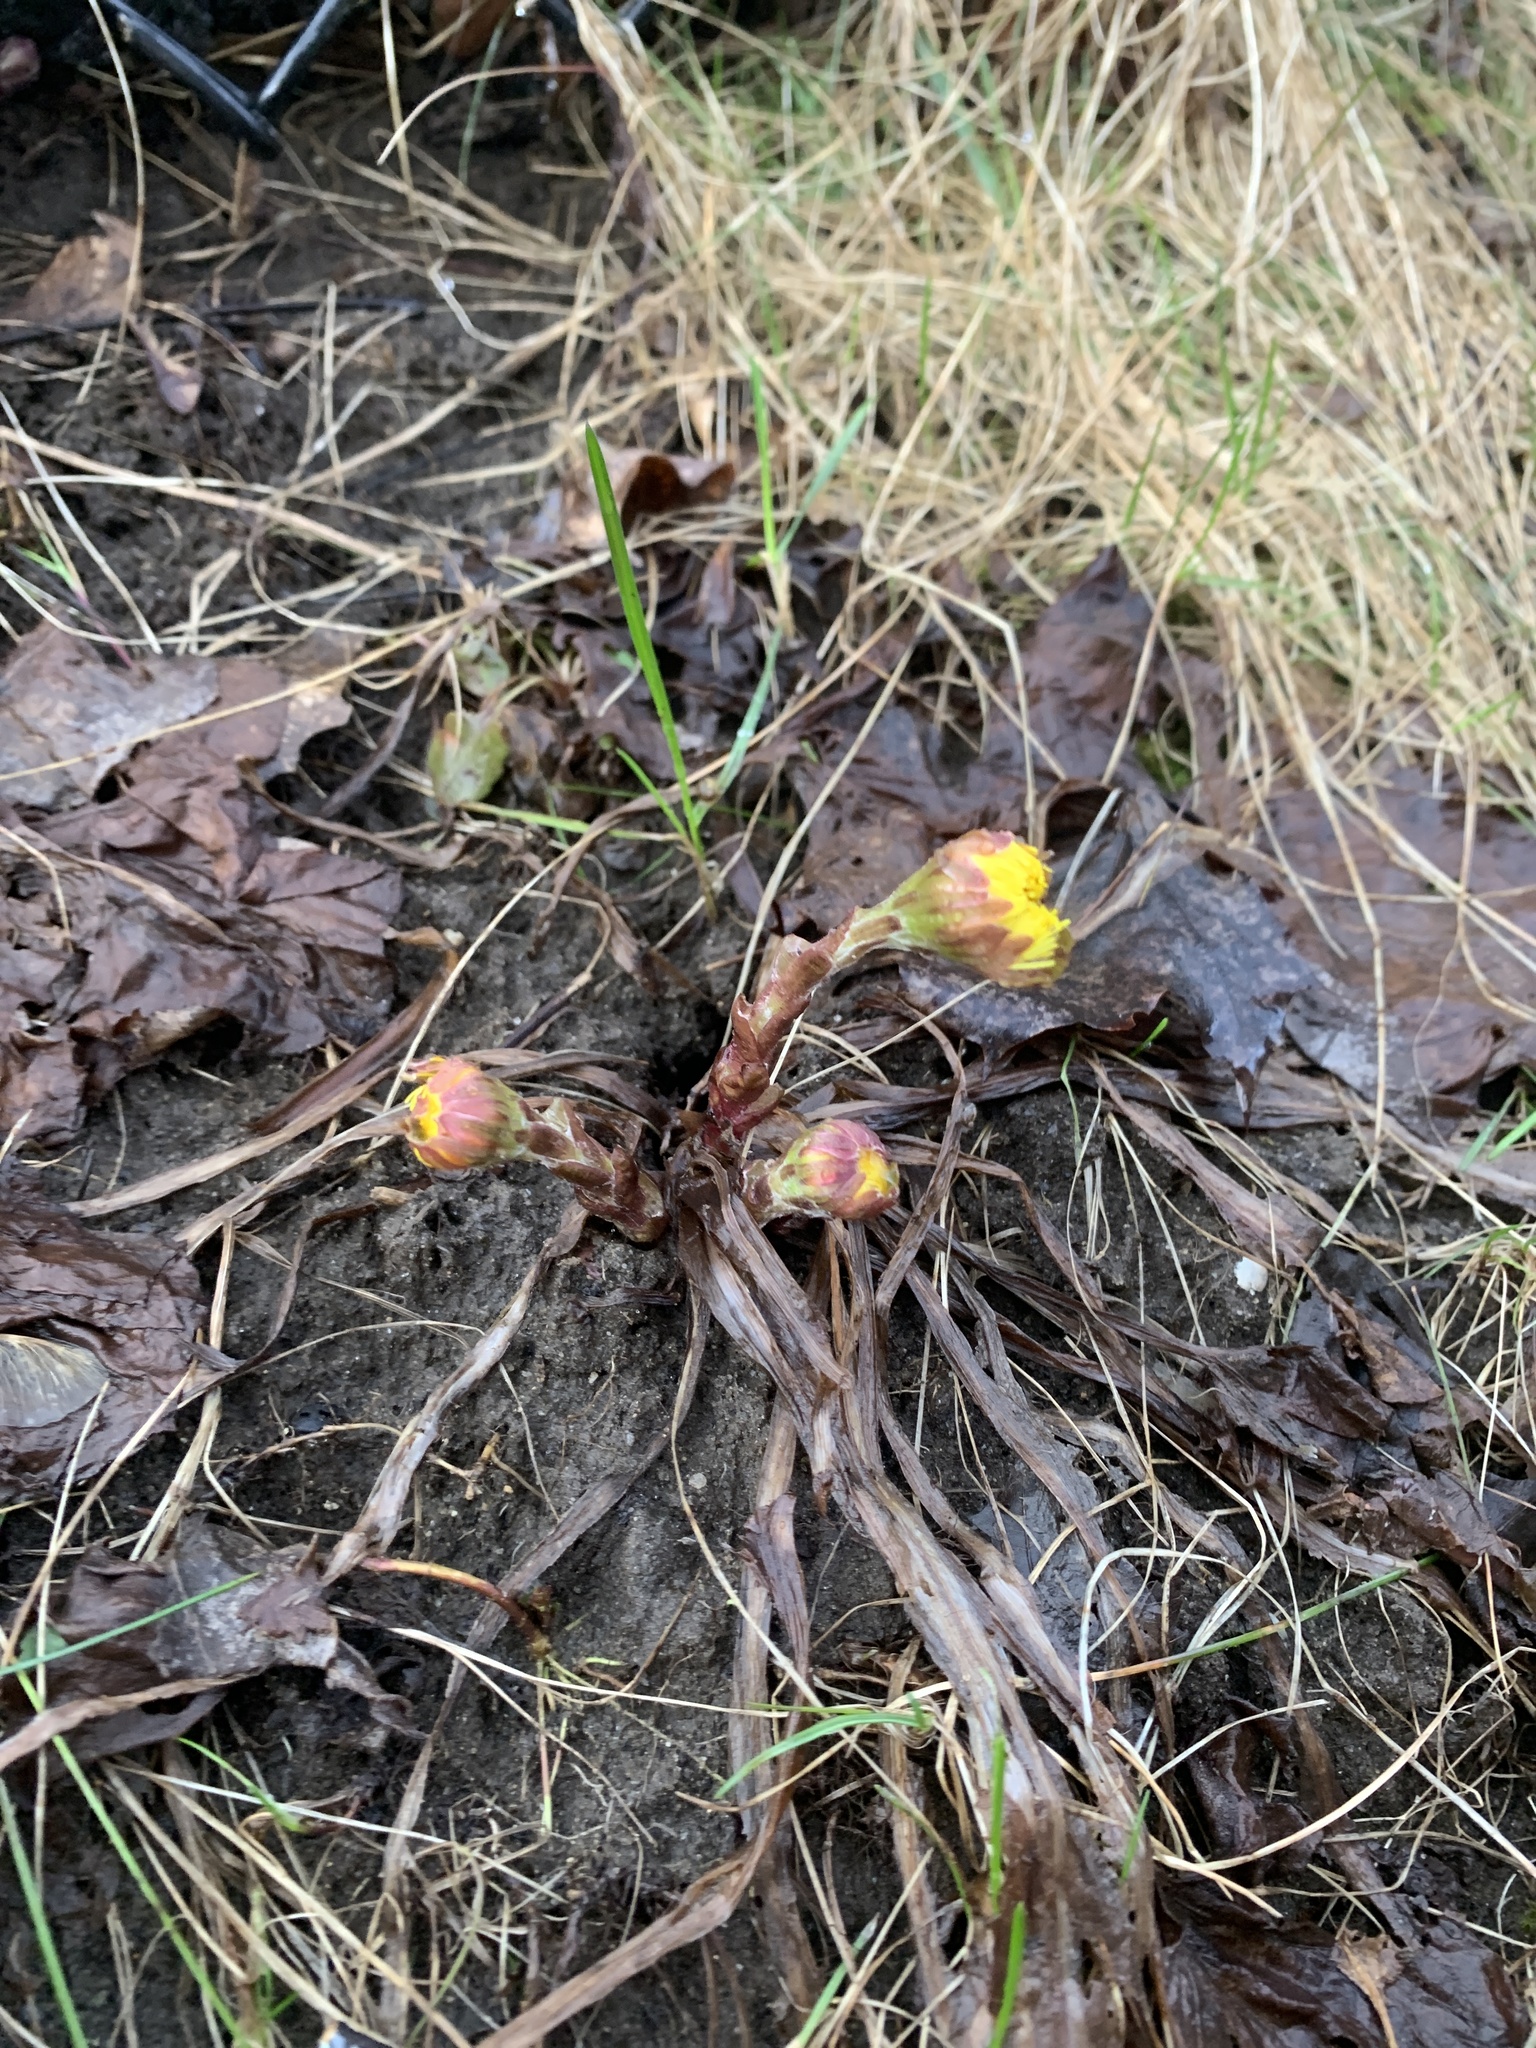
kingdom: Plantae
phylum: Tracheophyta
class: Magnoliopsida
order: Asterales
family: Asteraceae
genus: Tussilago
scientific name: Tussilago farfara
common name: Coltsfoot
